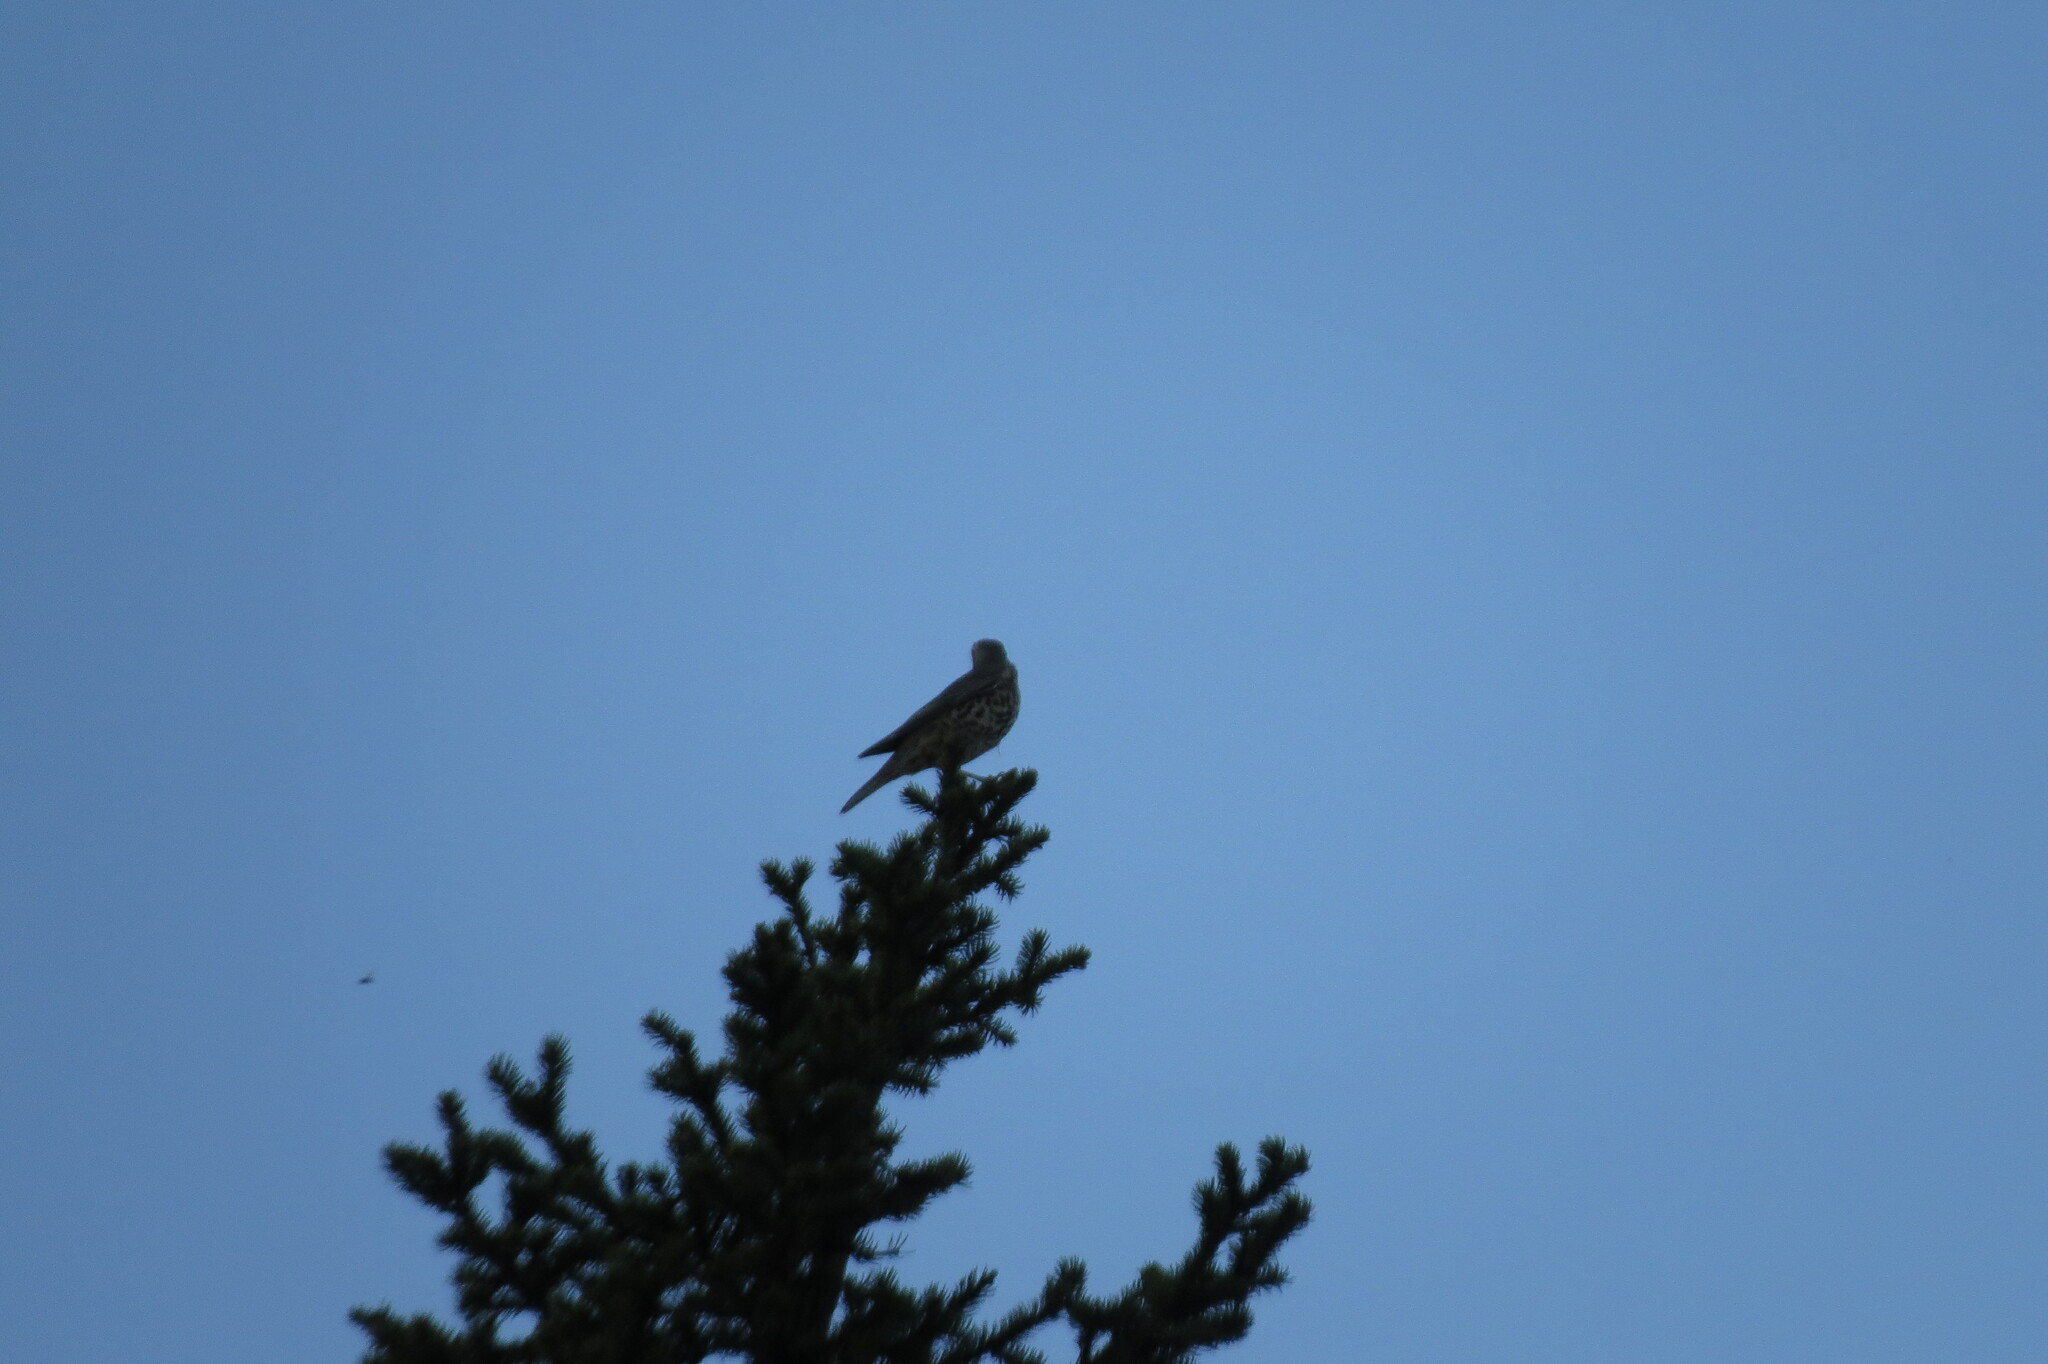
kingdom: Animalia
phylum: Chordata
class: Aves
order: Passeriformes
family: Turdidae
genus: Turdus
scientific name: Turdus viscivorus
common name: Mistle thrush
